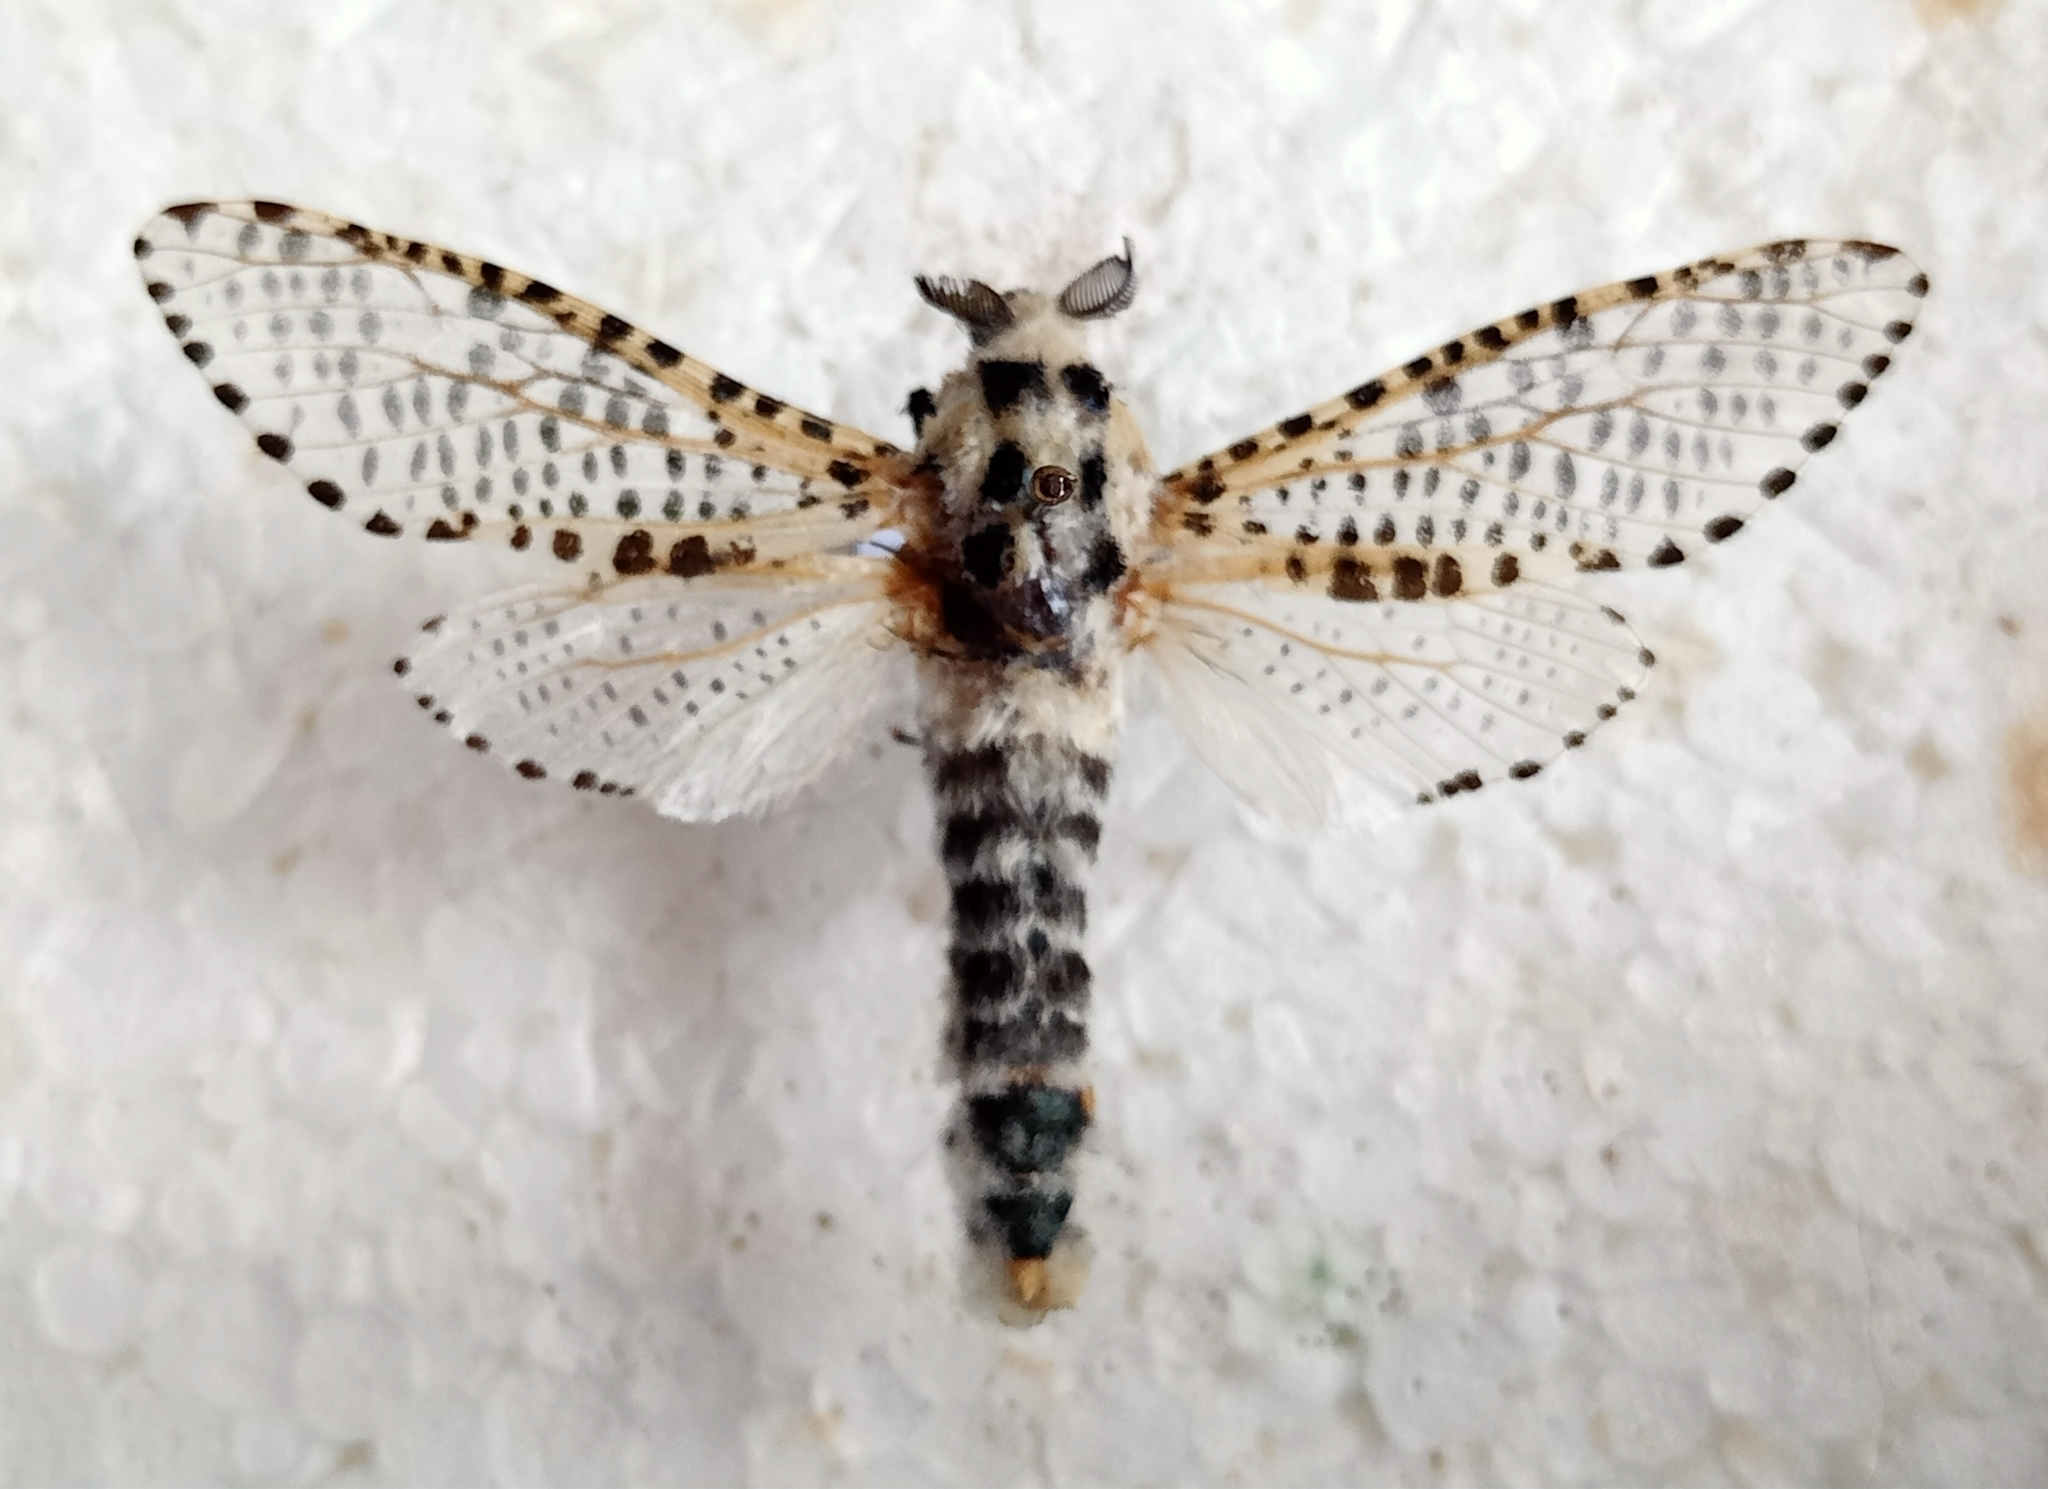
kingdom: Animalia
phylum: Arthropoda
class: Insecta
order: Lepidoptera
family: Cossidae
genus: Zeuzera
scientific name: Zeuzera pyrina
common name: Leopard moth
